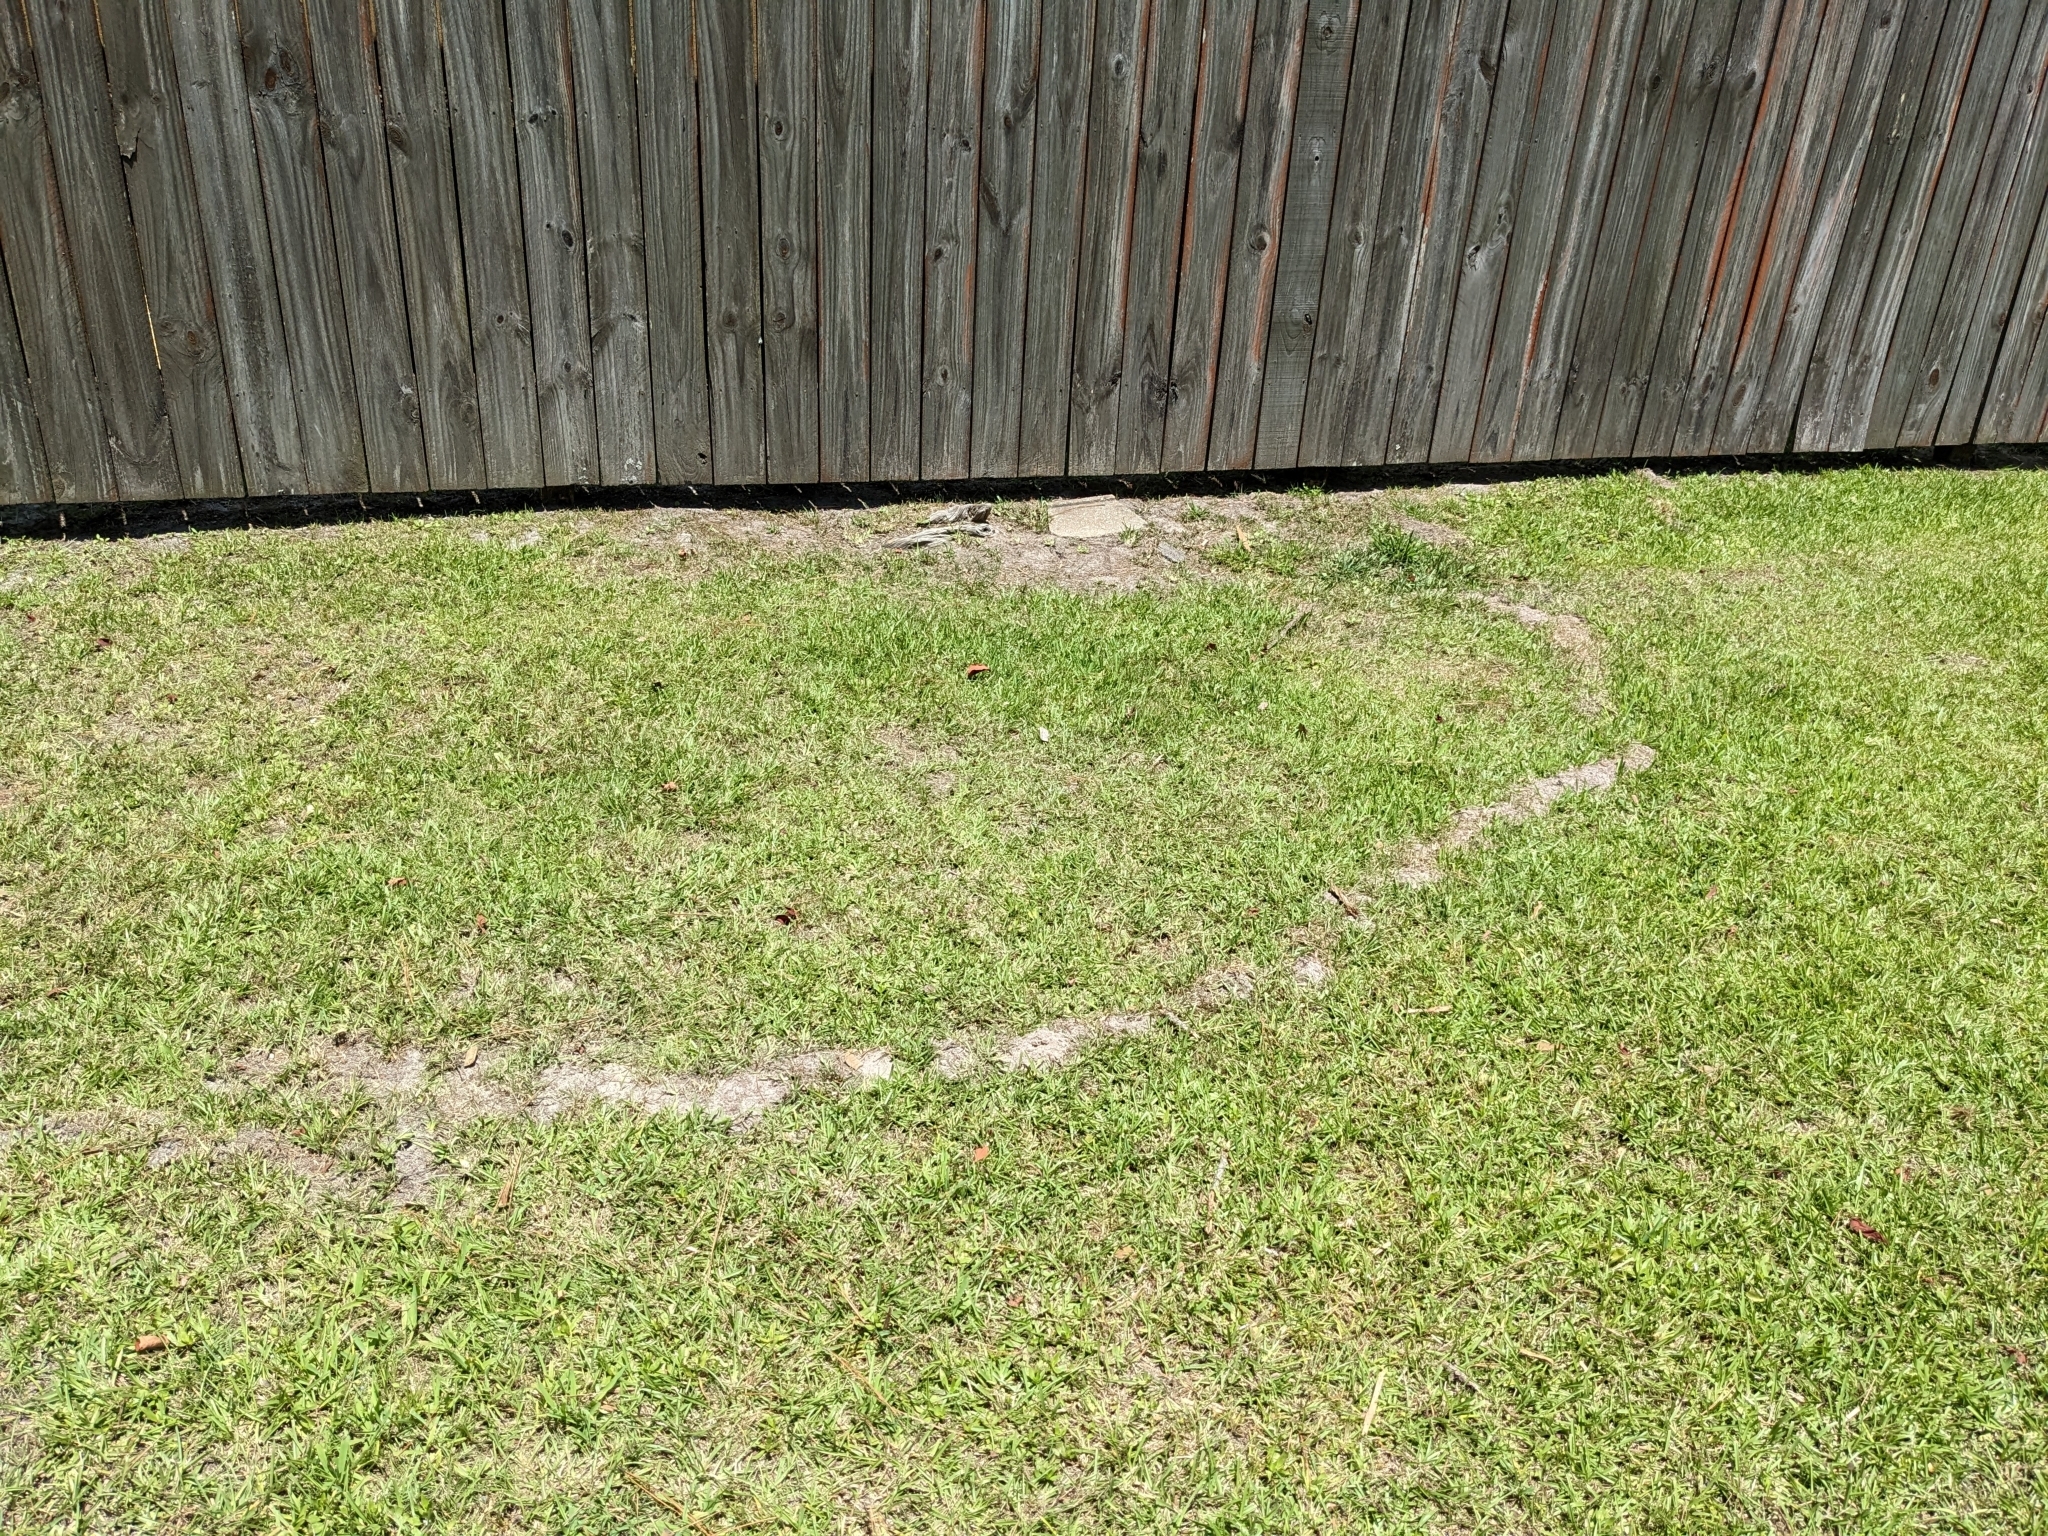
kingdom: Animalia
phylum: Chordata
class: Mammalia
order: Soricomorpha
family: Talpidae
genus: Scalopus
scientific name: Scalopus aquaticus
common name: Eastern mole
